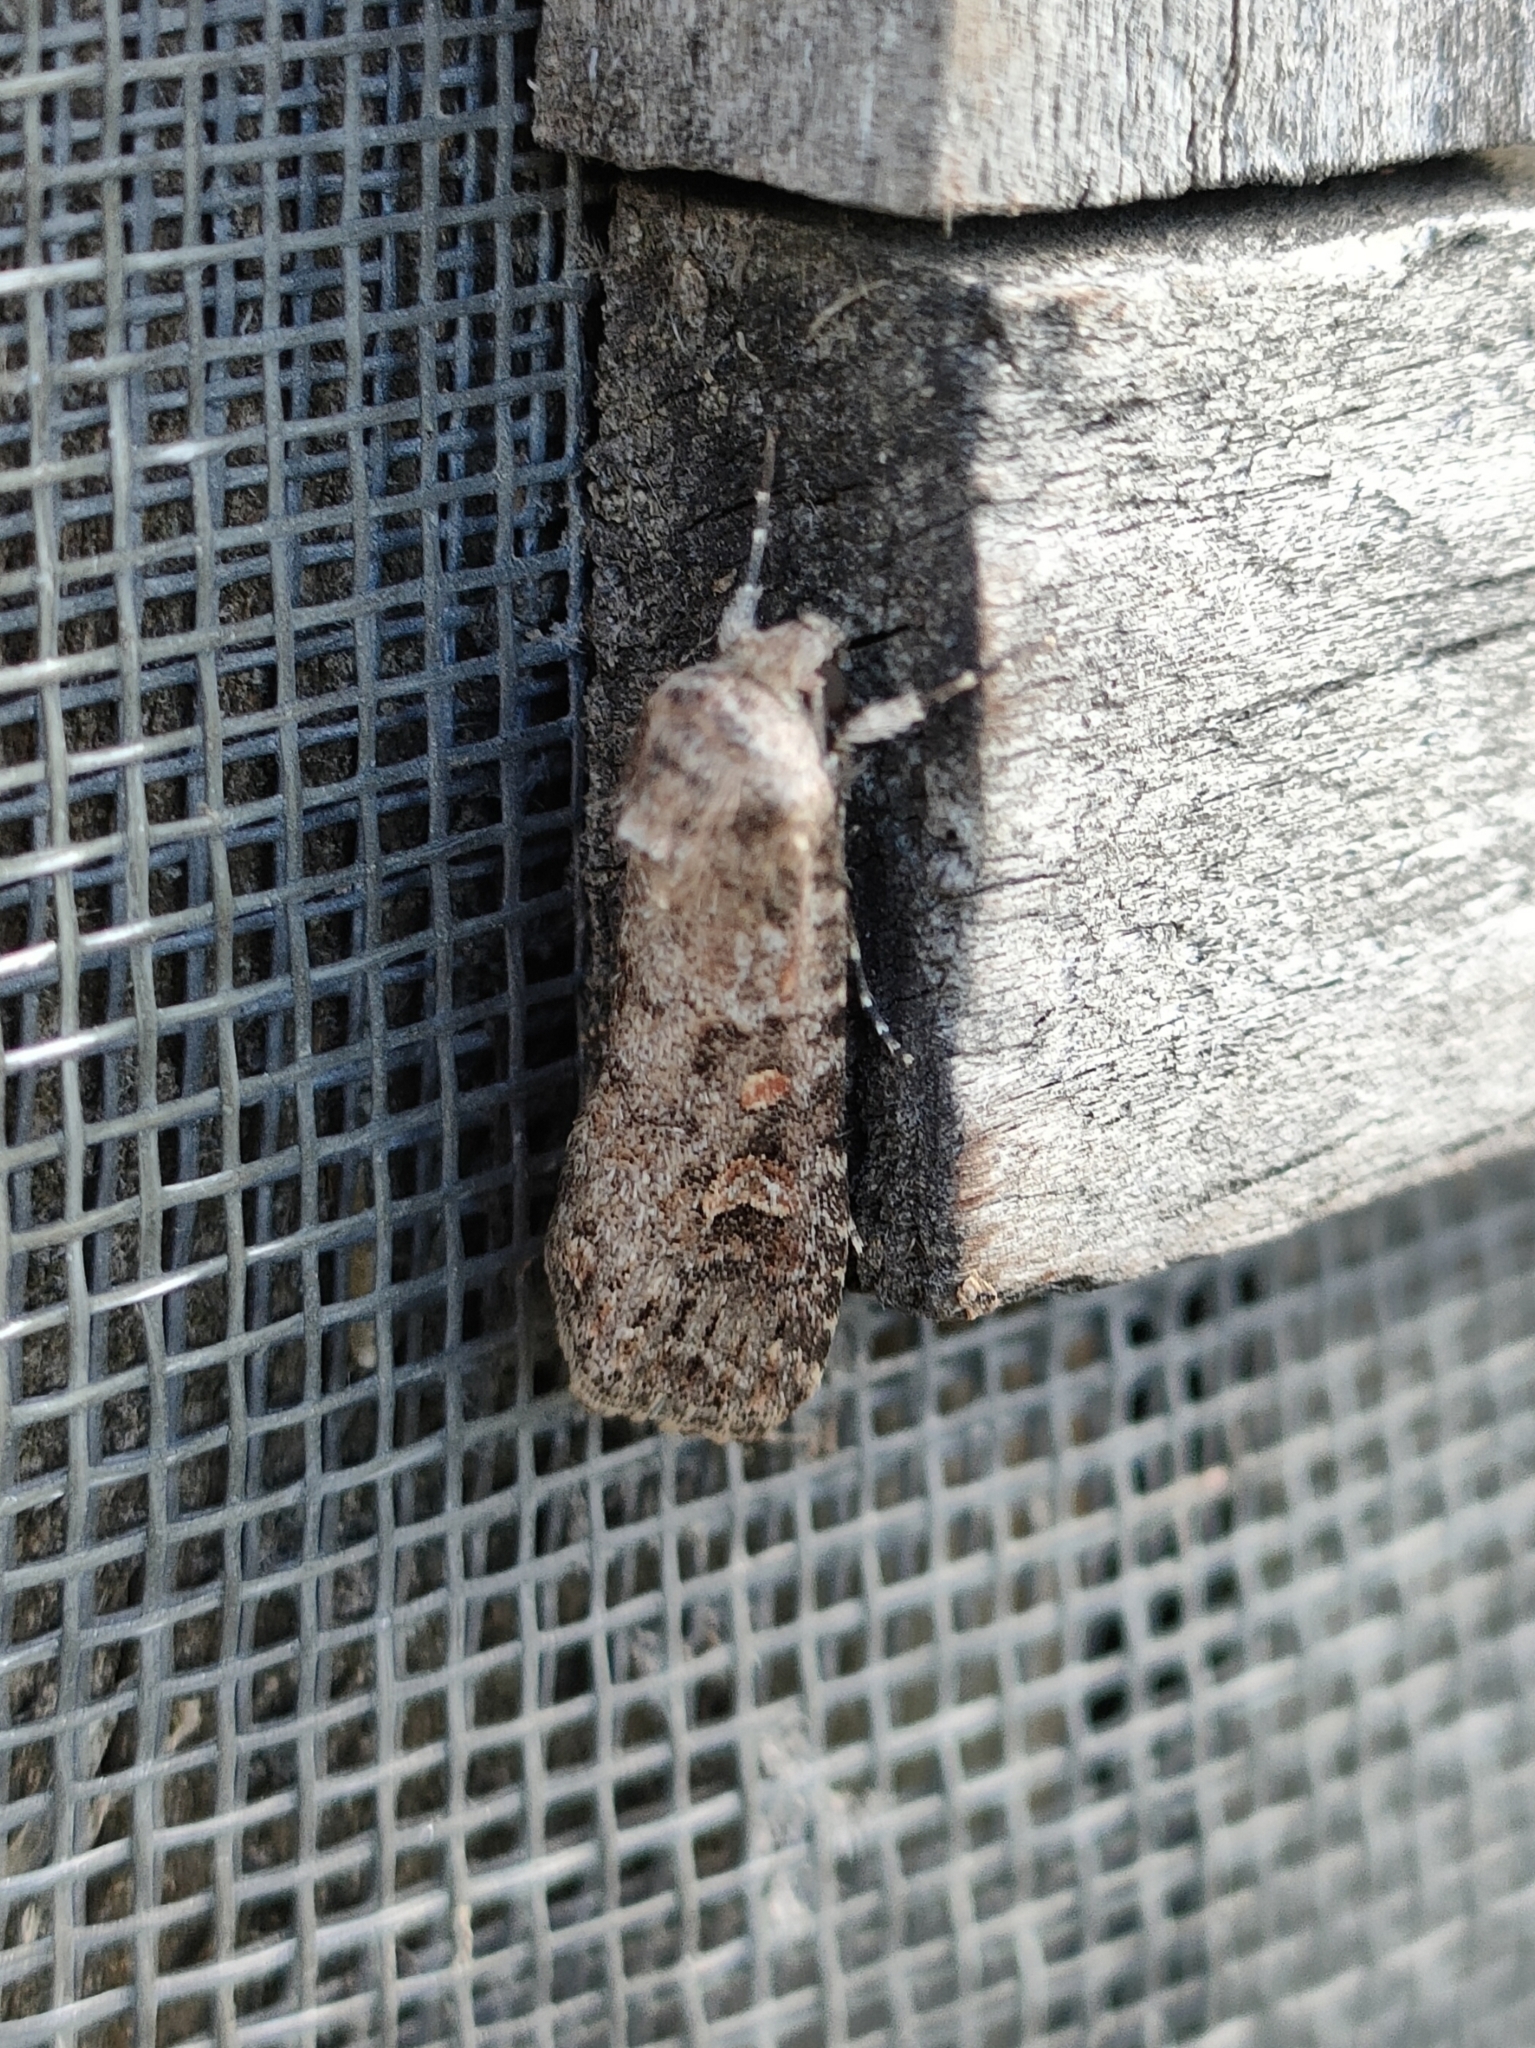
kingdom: Animalia
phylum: Arthropoda
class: Insecta
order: Lepidoptera
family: Noctuidae
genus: Spodoptera
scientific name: Spodoptera exigua
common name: Beet armyworm
